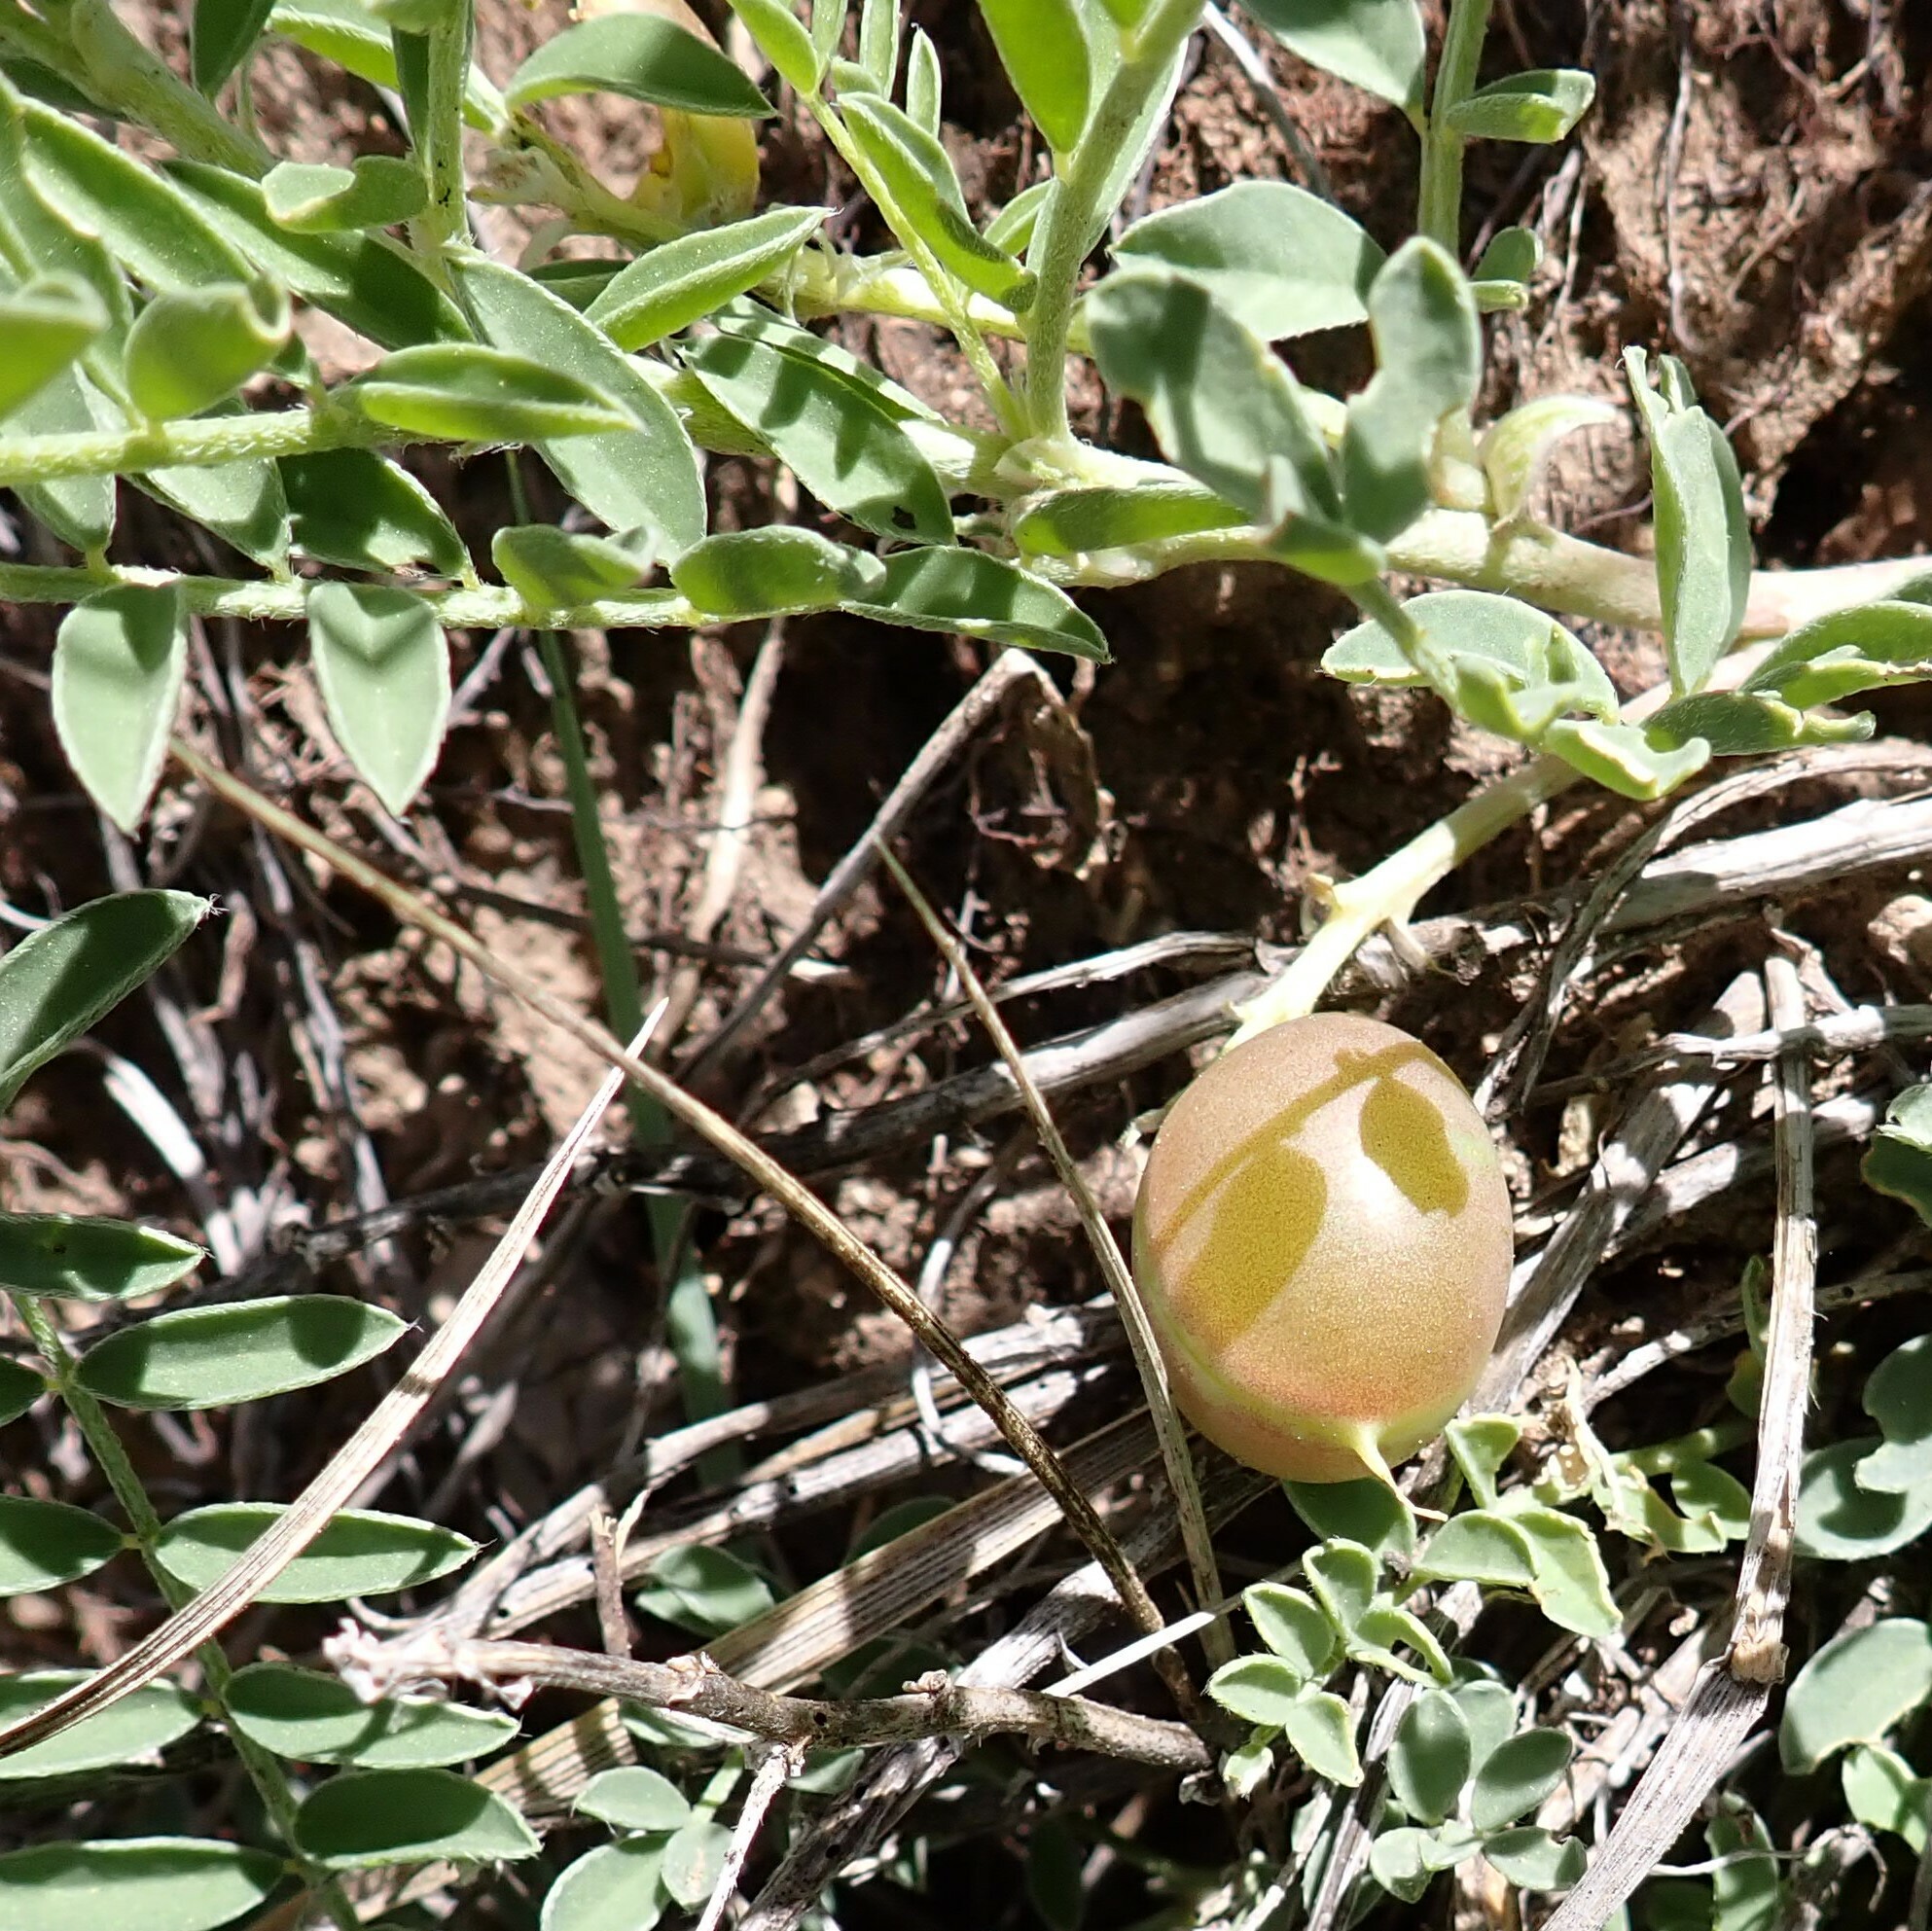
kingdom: Plantae
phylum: Tracheophyta
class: Magnoliopsida
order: Fabales
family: Fabaceae
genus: Astragalus
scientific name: Astragalus crassicarpus
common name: Ground-plum milk-vetch
